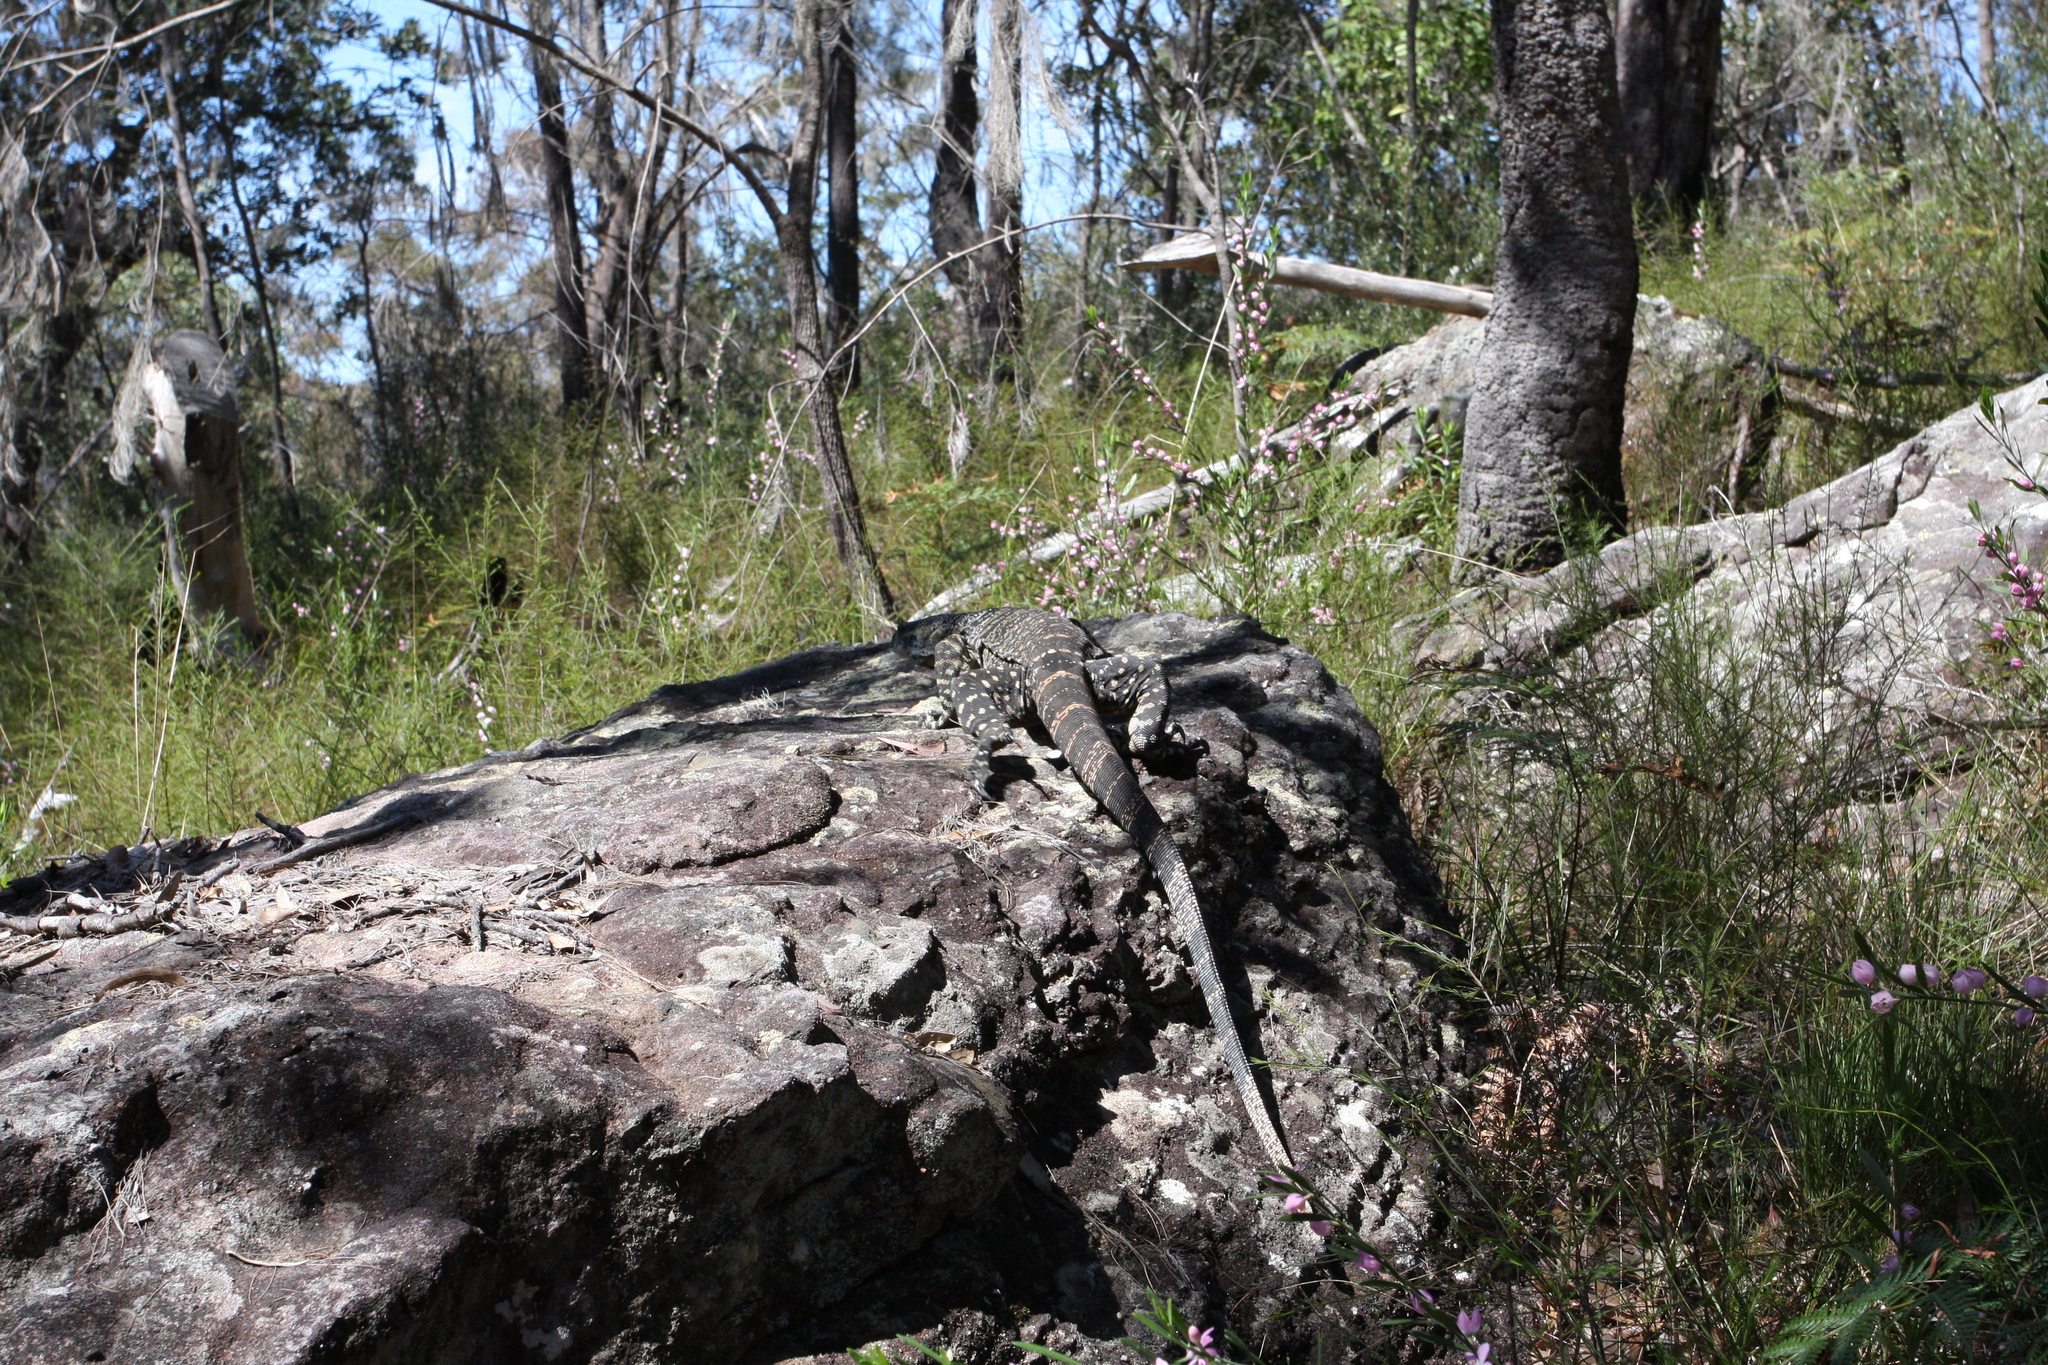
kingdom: Animalia
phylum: Chordata
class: Squamata
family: Varanidae
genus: Varanus
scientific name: Varanus varius
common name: Lace monitor
